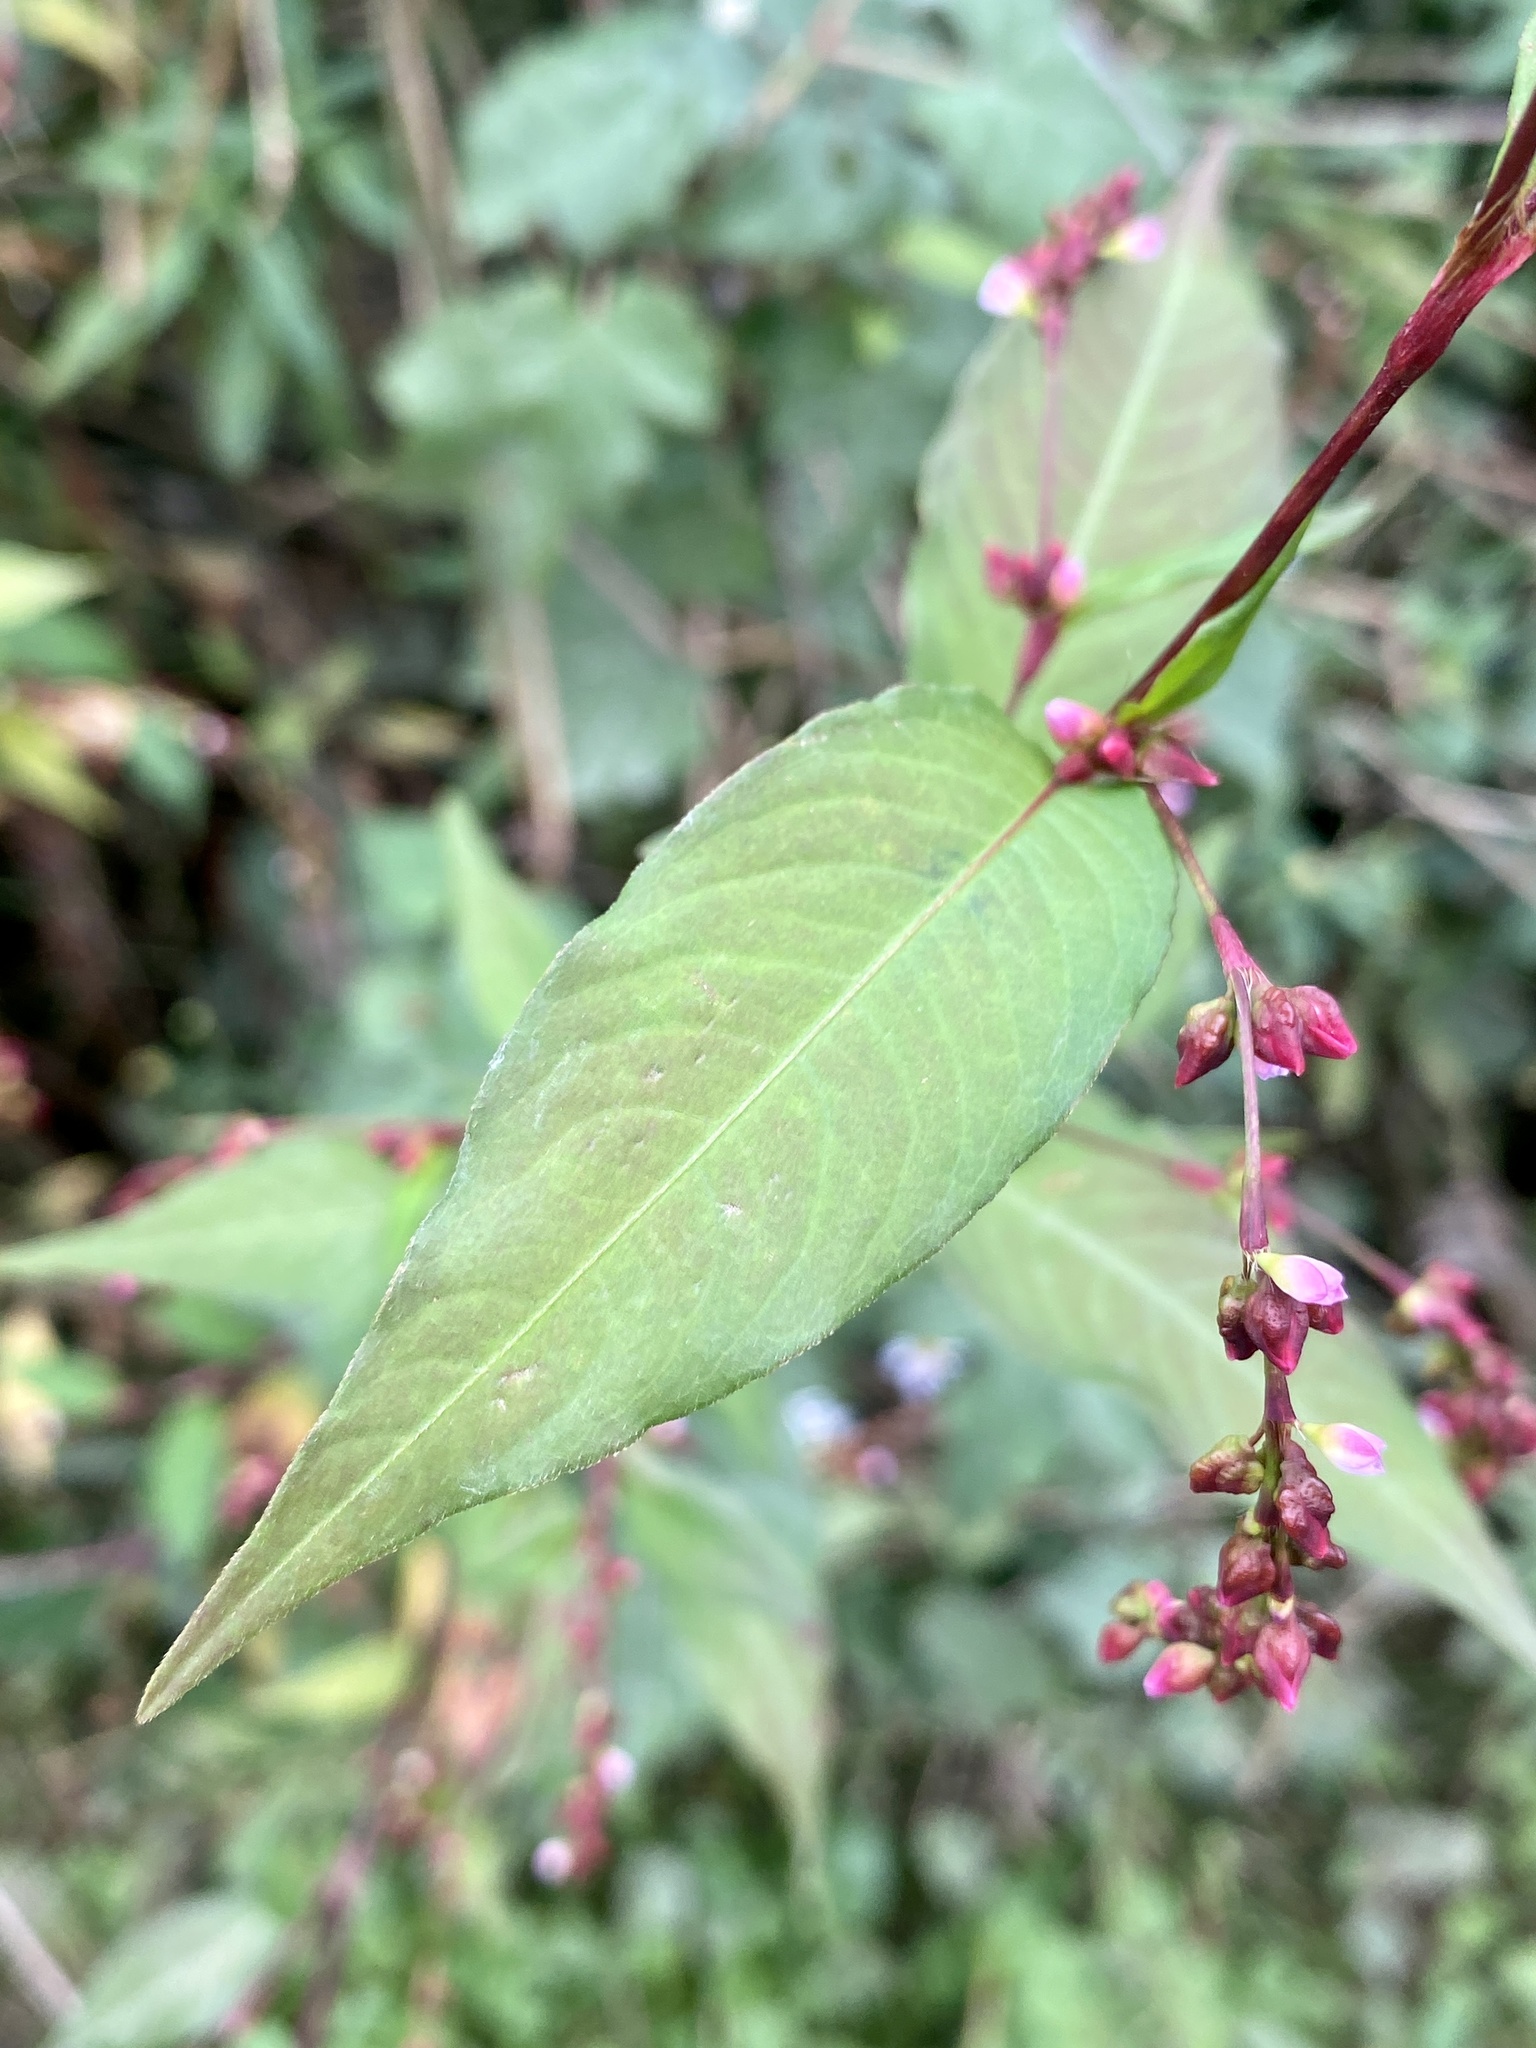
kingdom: Plantae
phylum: Tracheophyta
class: Magnoliopsida
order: Caryophyllales
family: Polygonaceae
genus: Persicaria
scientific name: Persicaria hydropiper
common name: Water-pepper
